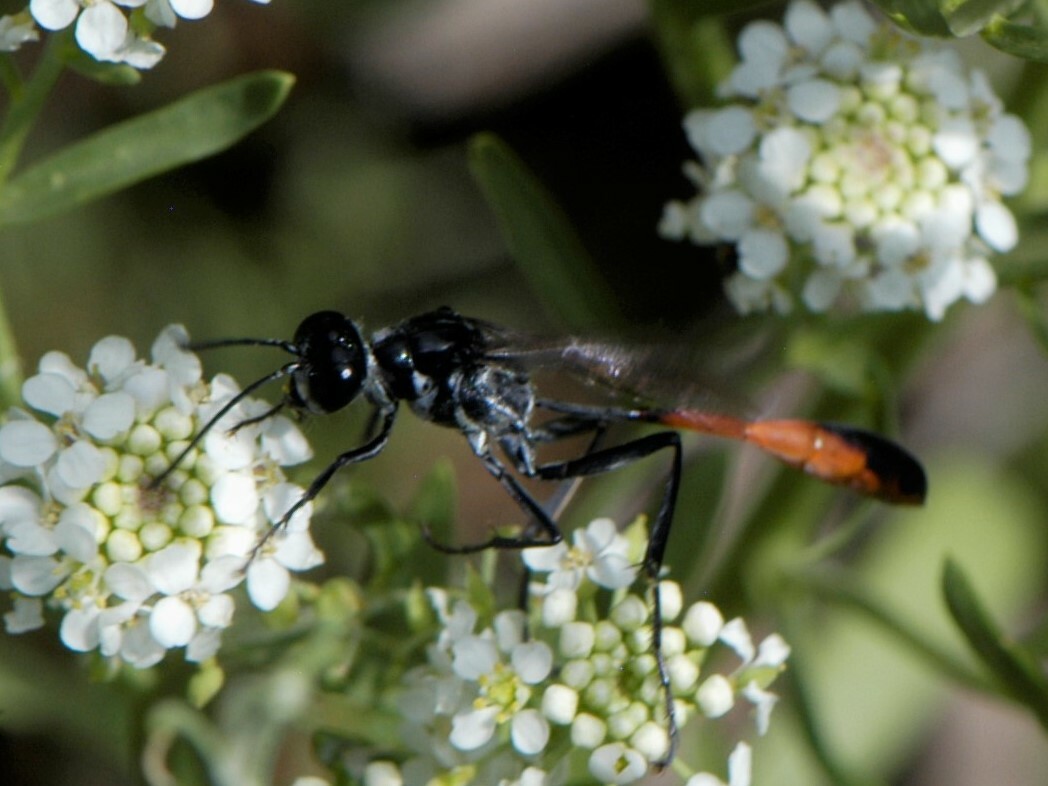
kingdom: Animalia
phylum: Arthropoda
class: Insecta
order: Hymenoptera
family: Sphecidae
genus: Ammophila
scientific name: Ammophila
